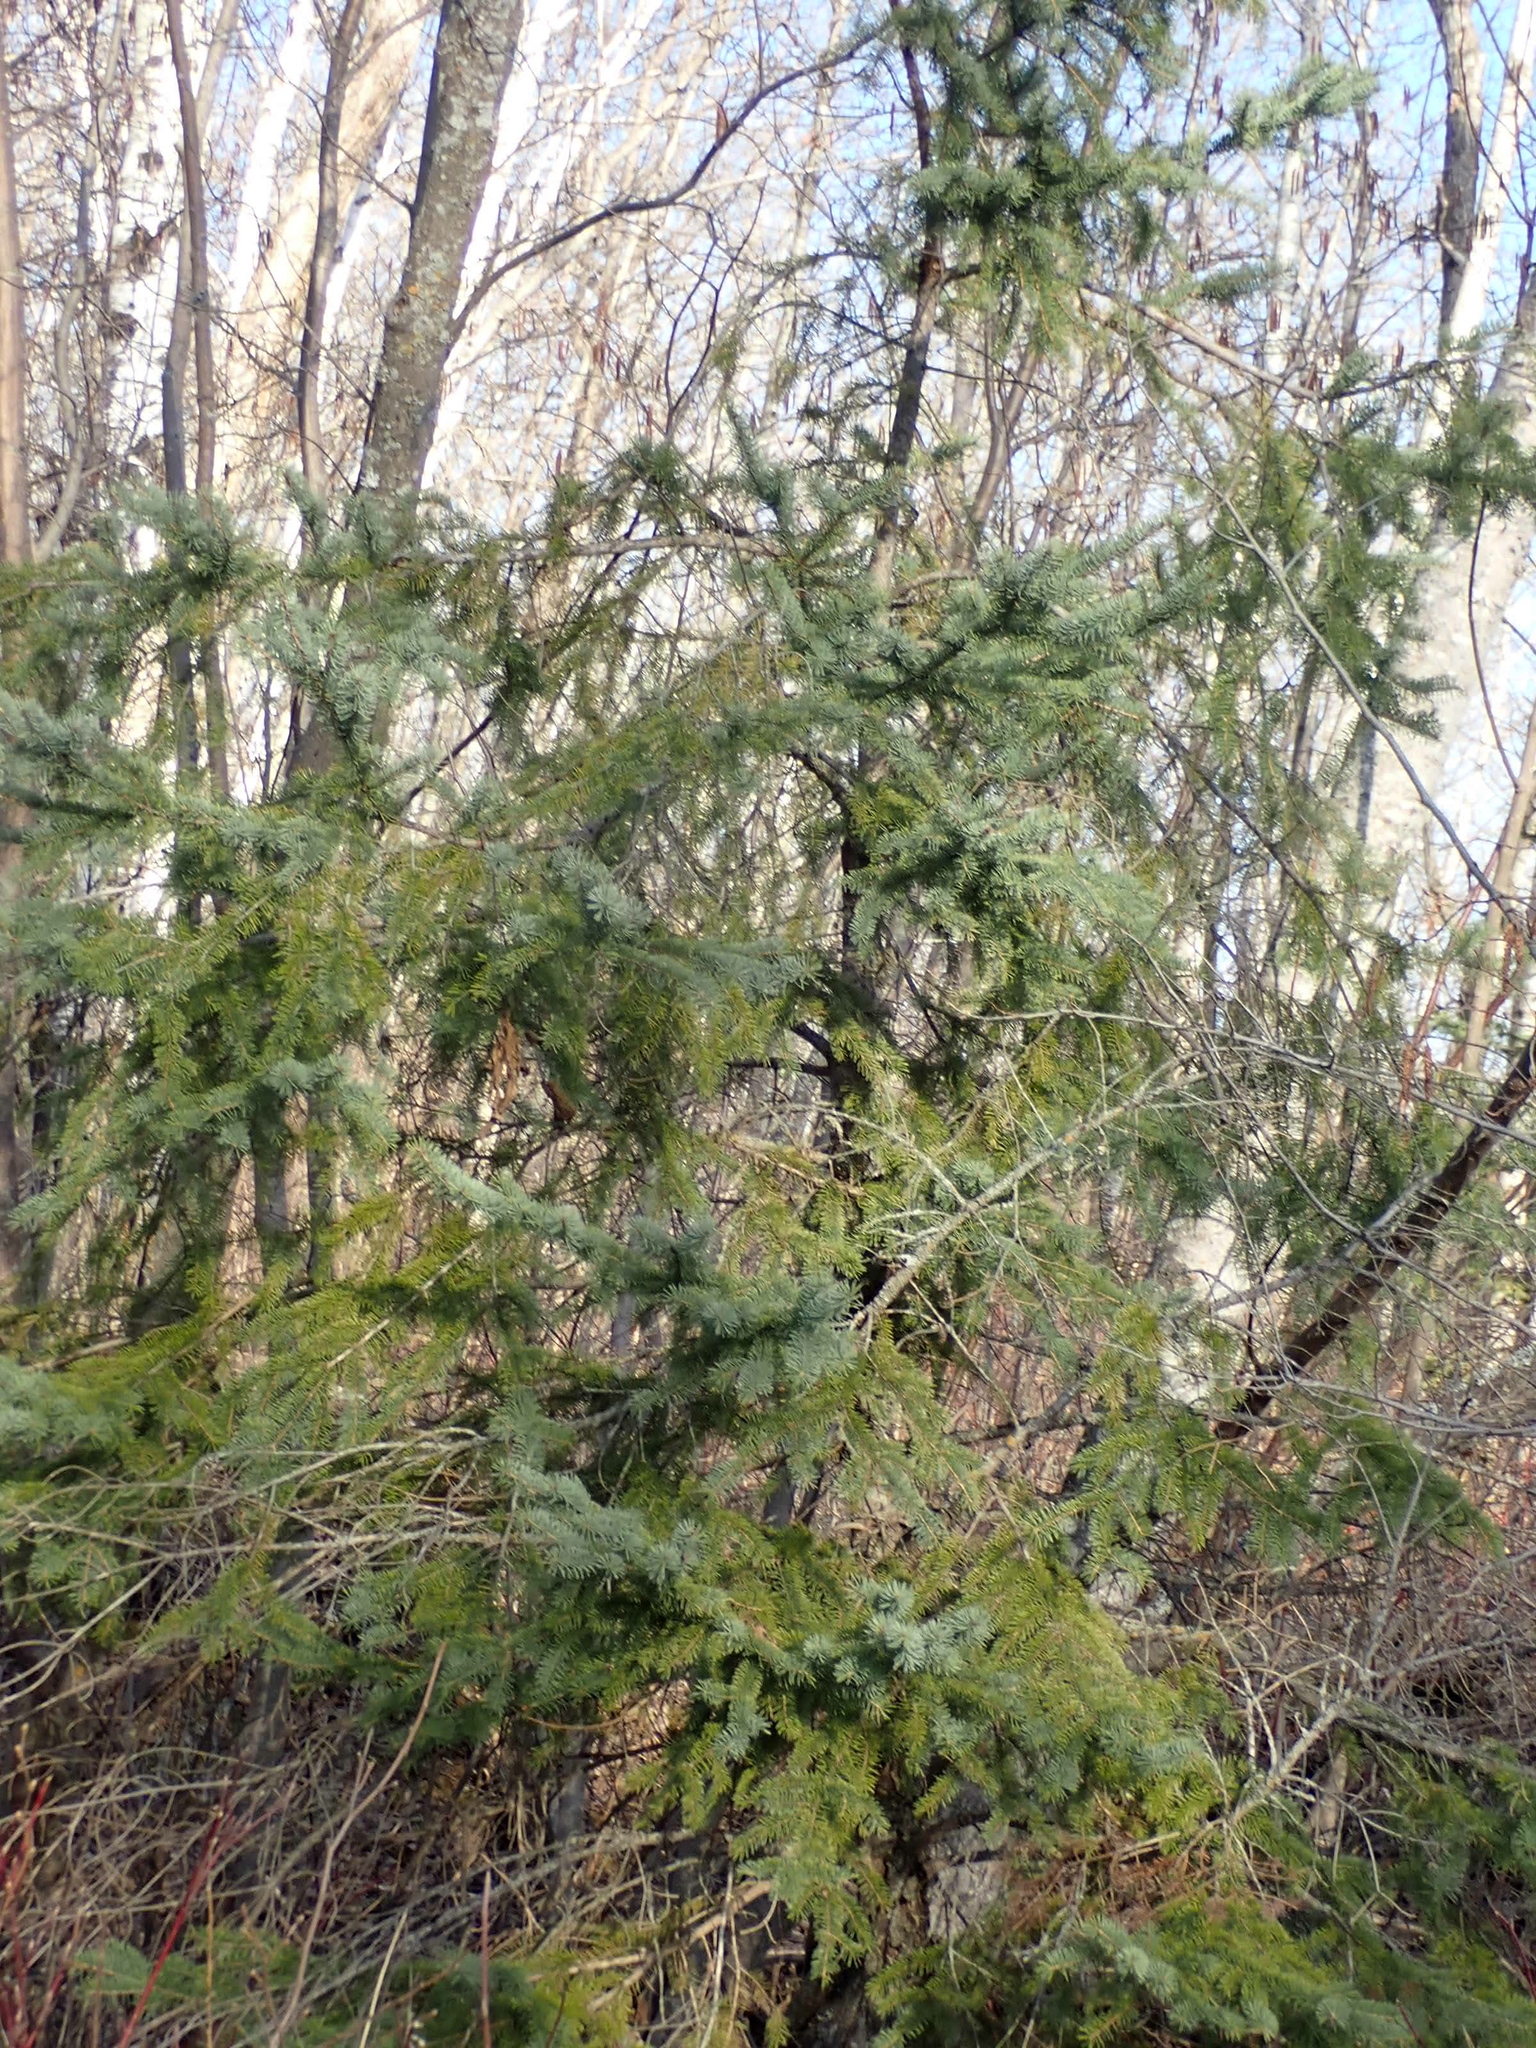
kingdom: Plantae
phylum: Tracheophyta
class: Pinopsida
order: Pinales
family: Pinaceae
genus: Picea
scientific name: Picea glauca
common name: White spruce
